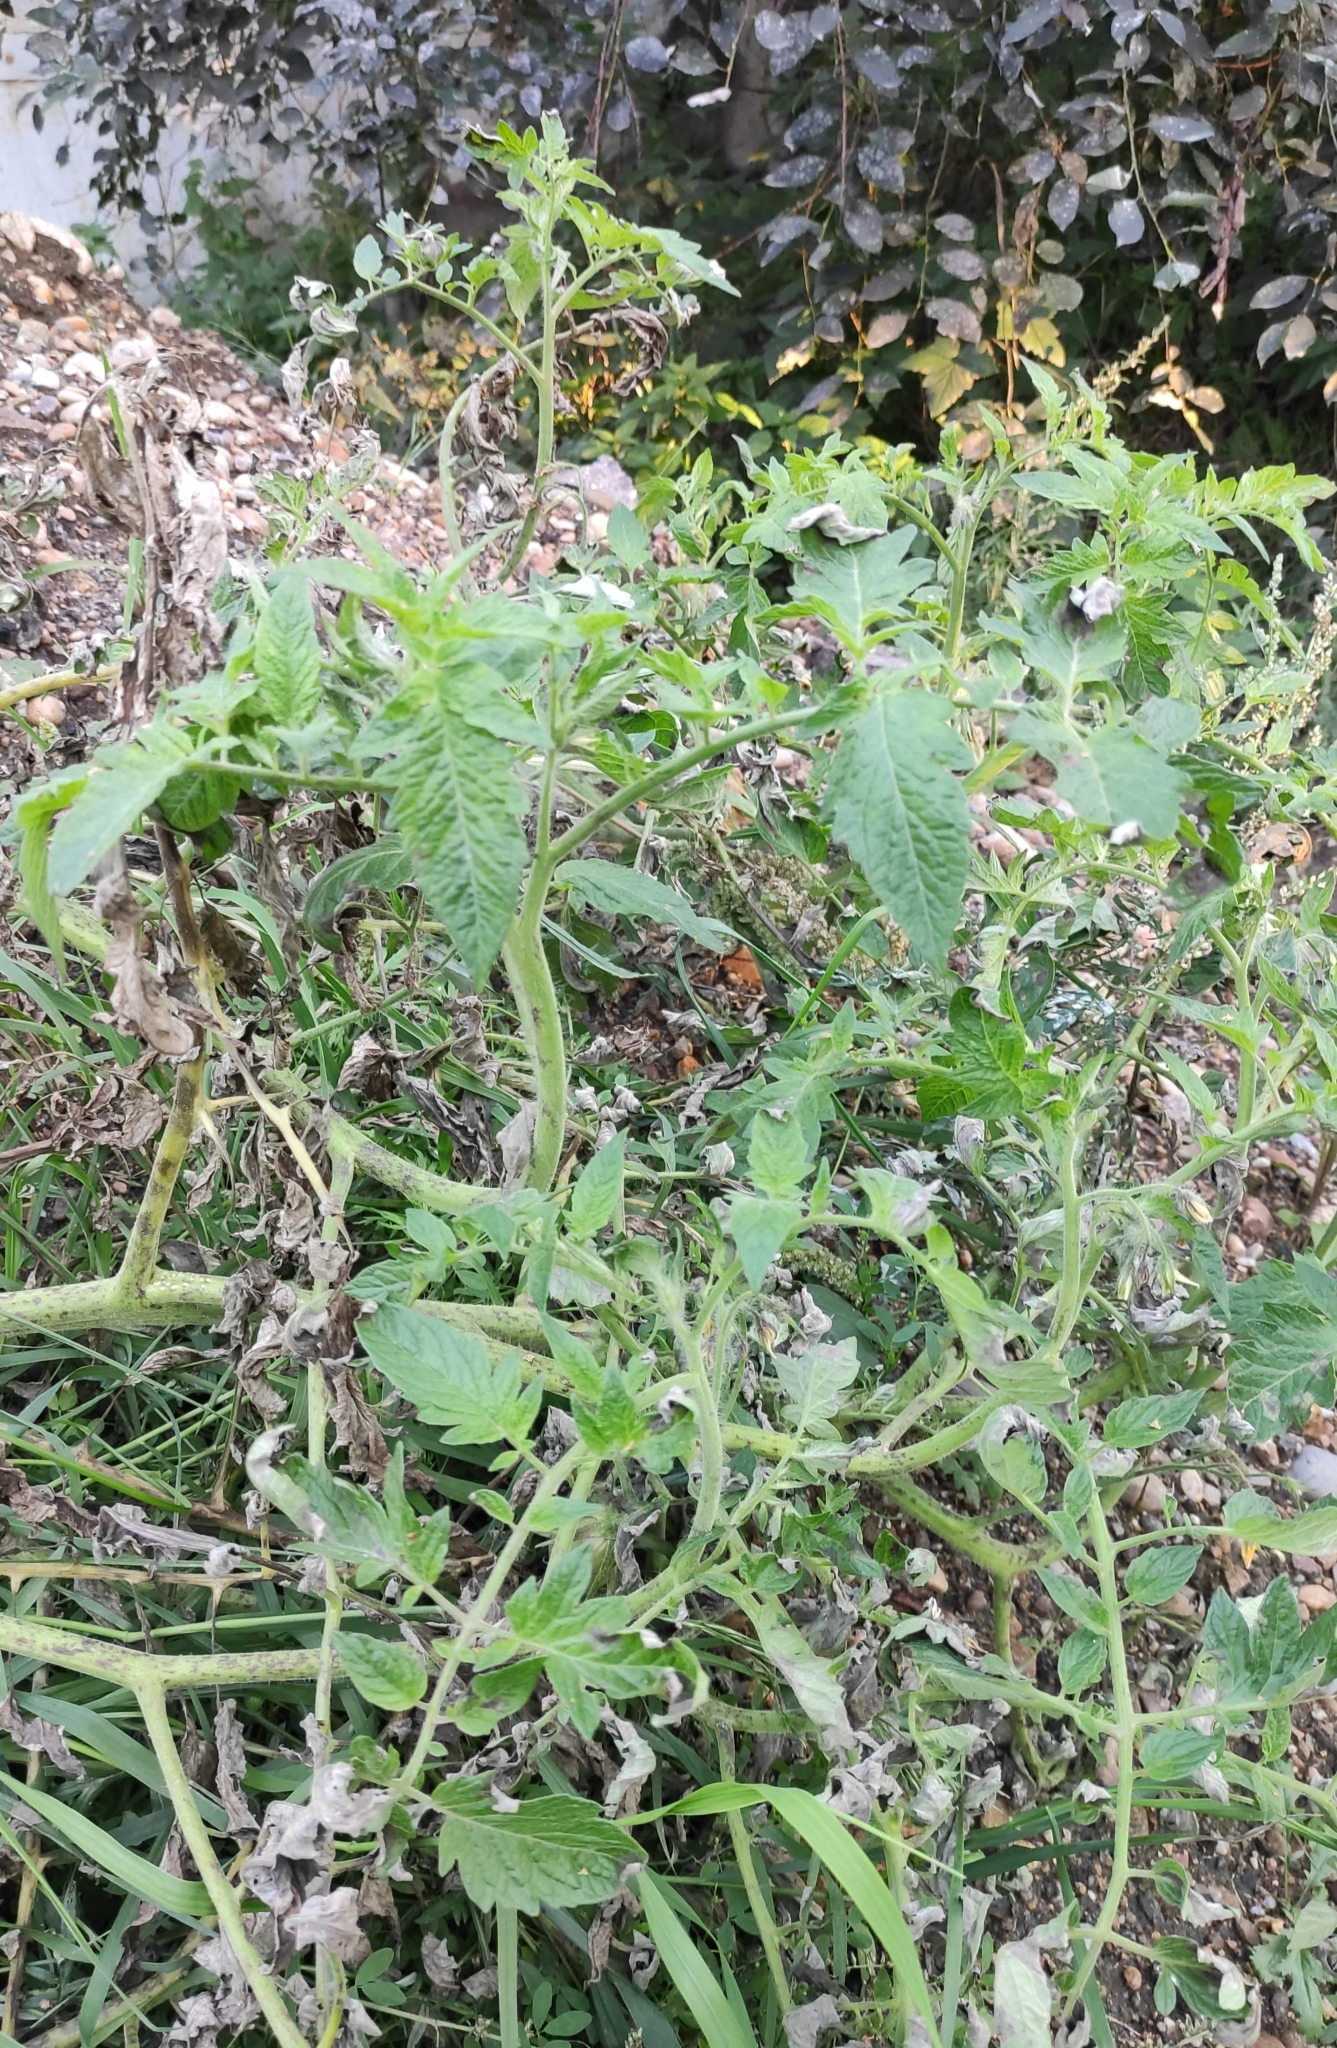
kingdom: Plantae
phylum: Tracheophyta
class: Magnoliopsida
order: Solanales
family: Solanaceae
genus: Solanum
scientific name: Solanum lycopersicum
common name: Garden tomato
